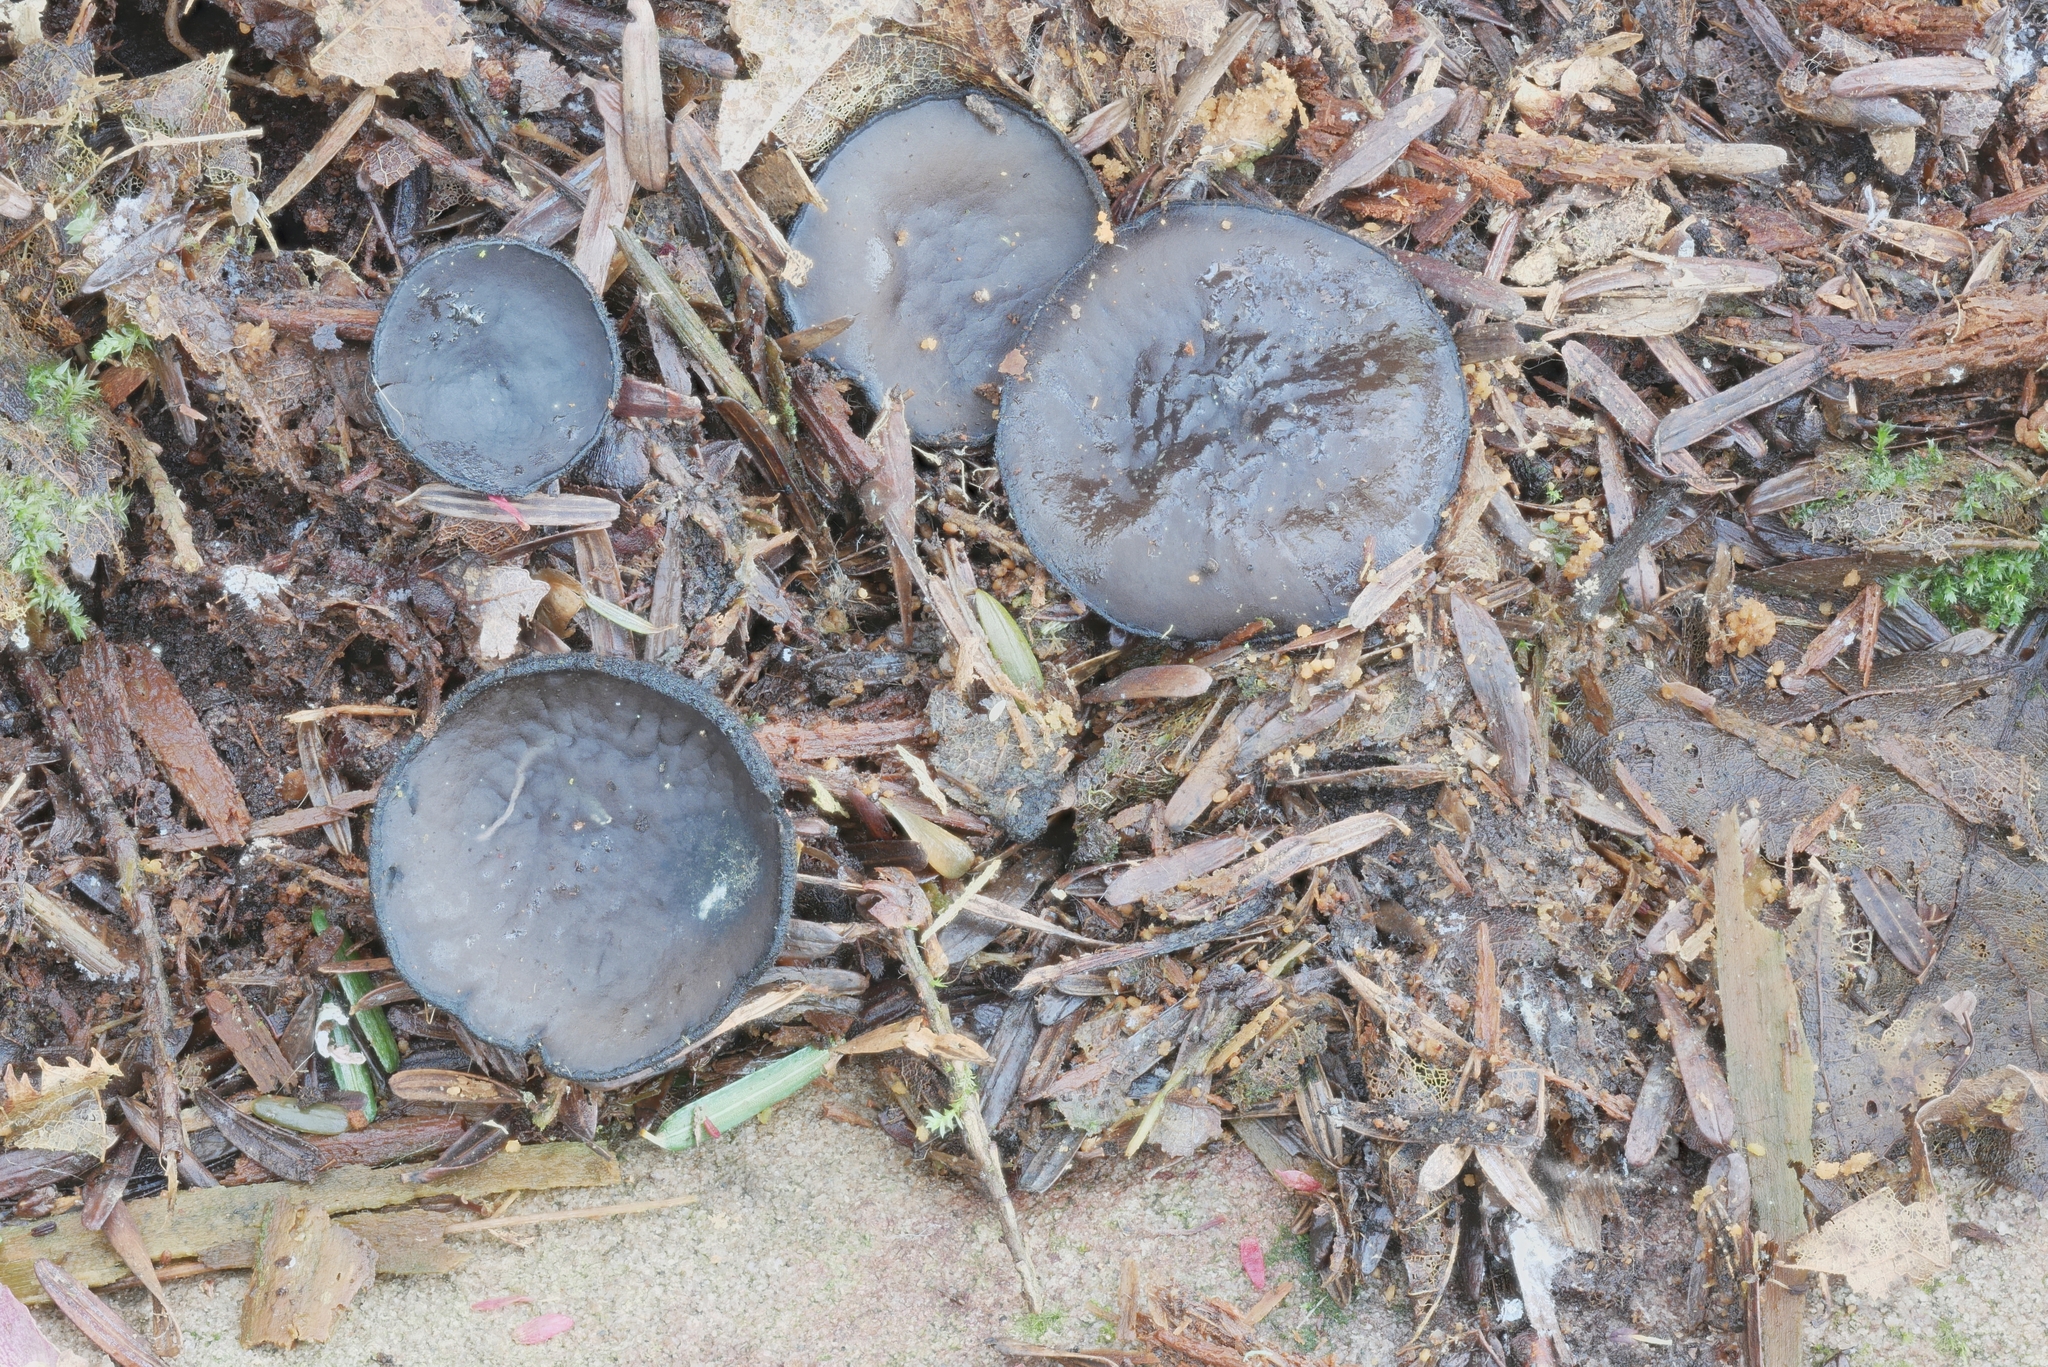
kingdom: Fungi
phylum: Ascomycota
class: Pezizomycetes
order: Pezizales
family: Sarcosomataceae
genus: Pseudoplectania
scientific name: Pseudoplectania nigrella
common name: Ebony cup
